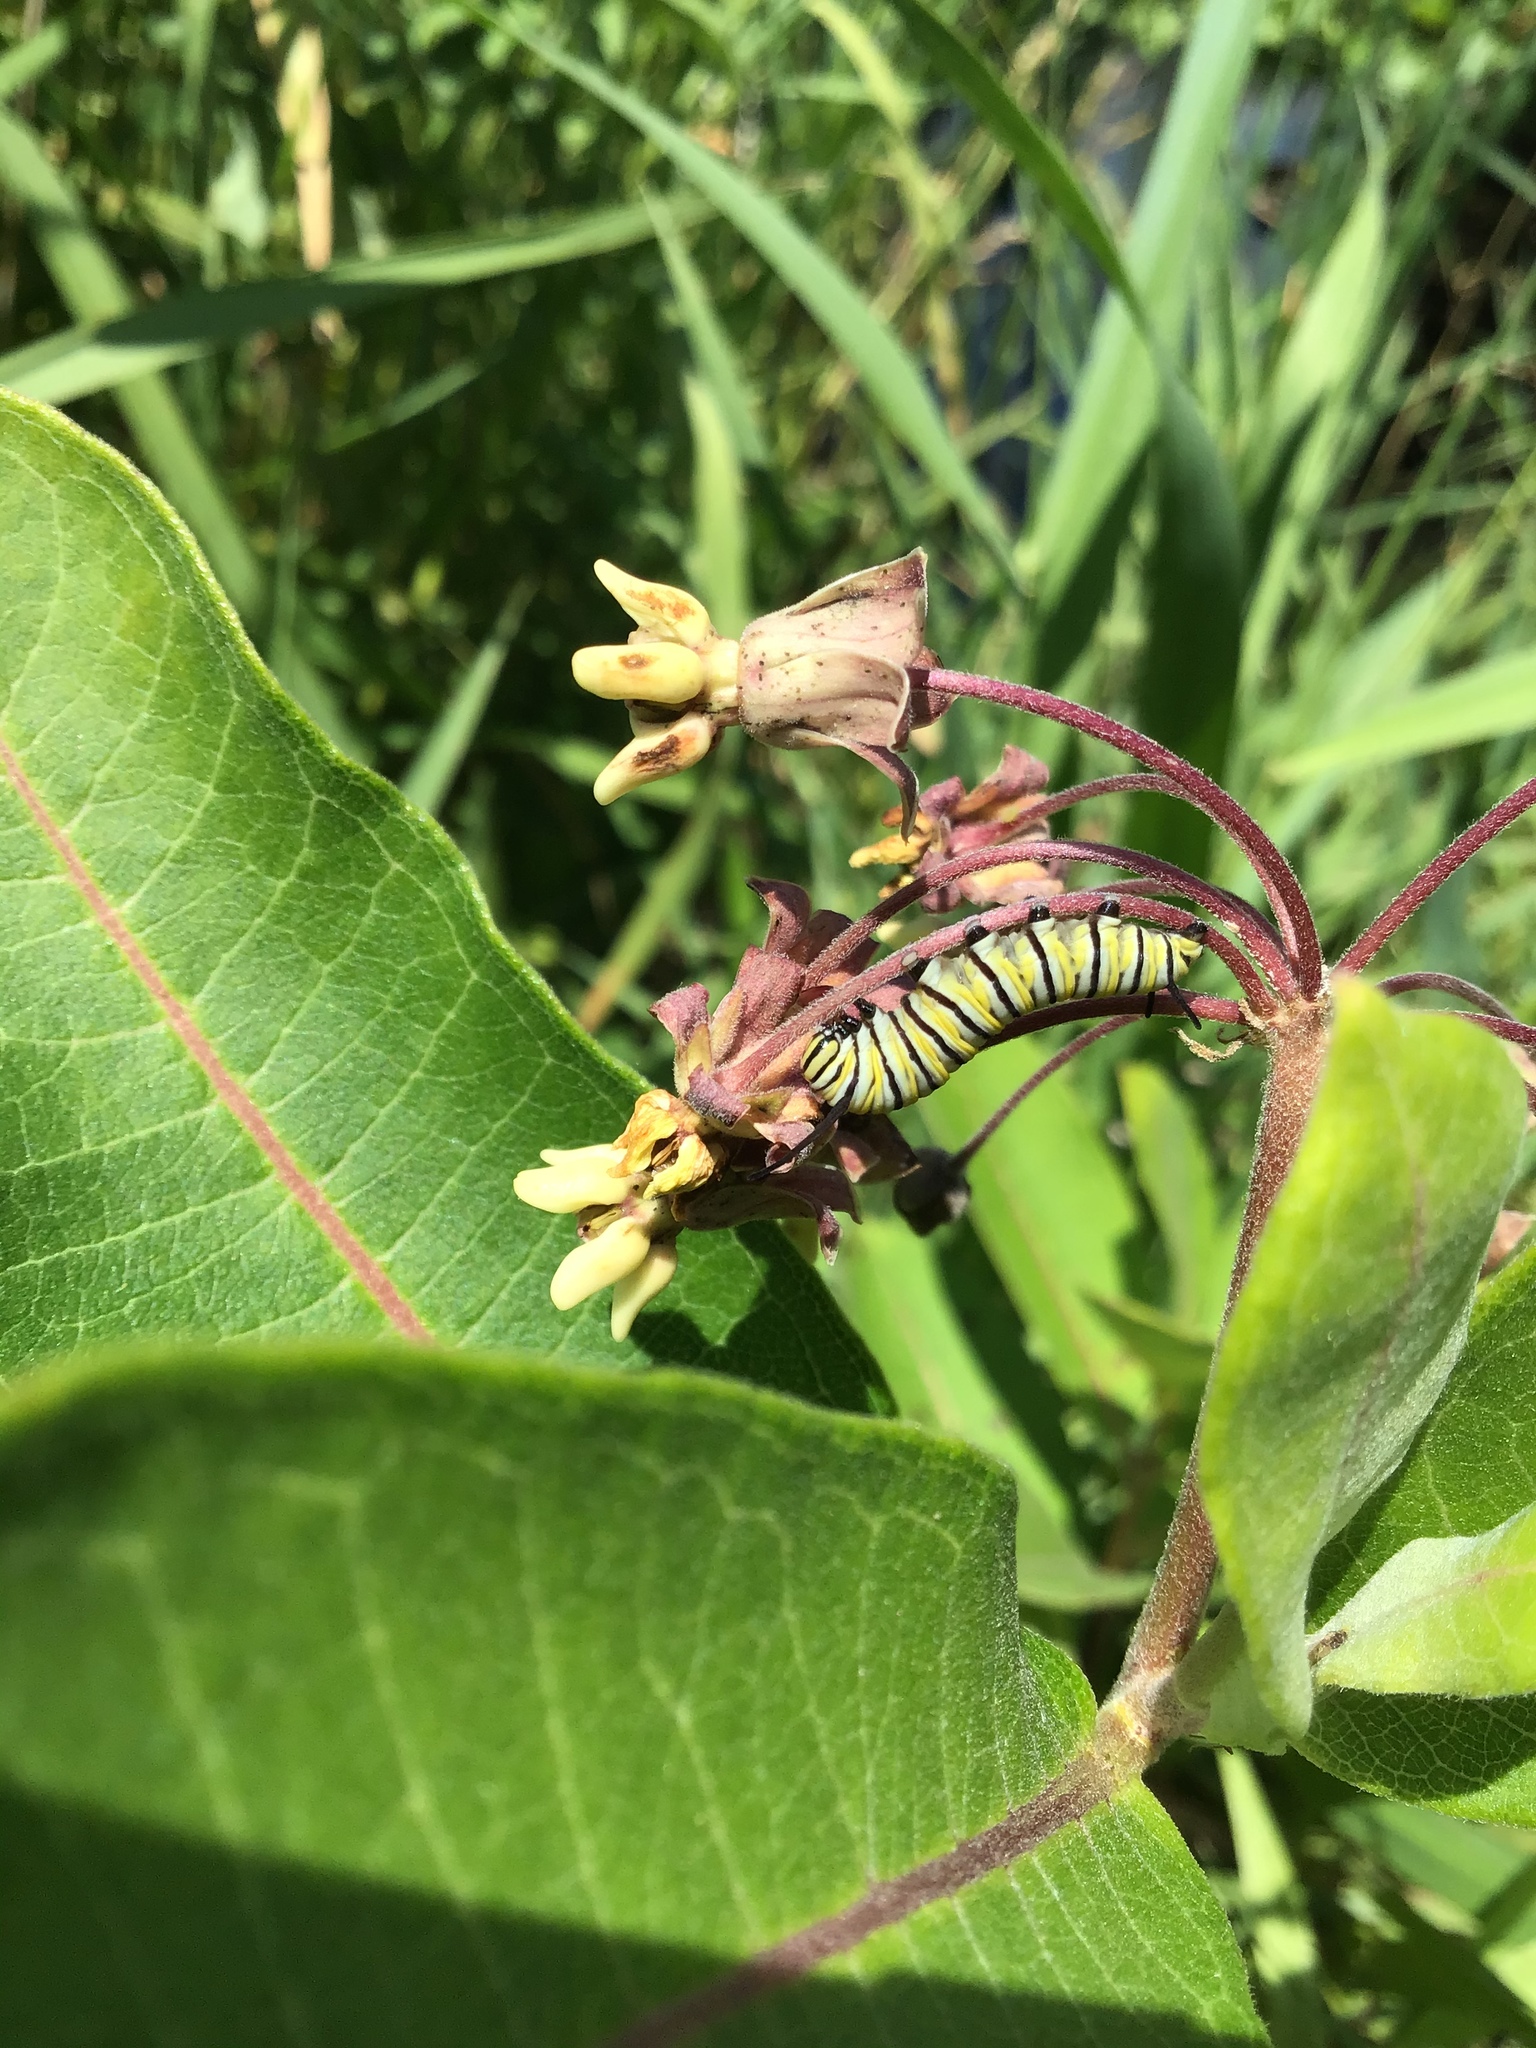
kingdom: Animalia
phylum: Arthropoda
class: Insecta
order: Lepidoptera
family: Nymphalidae
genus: Danaus
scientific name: Danaus plexippus
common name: Monarch
